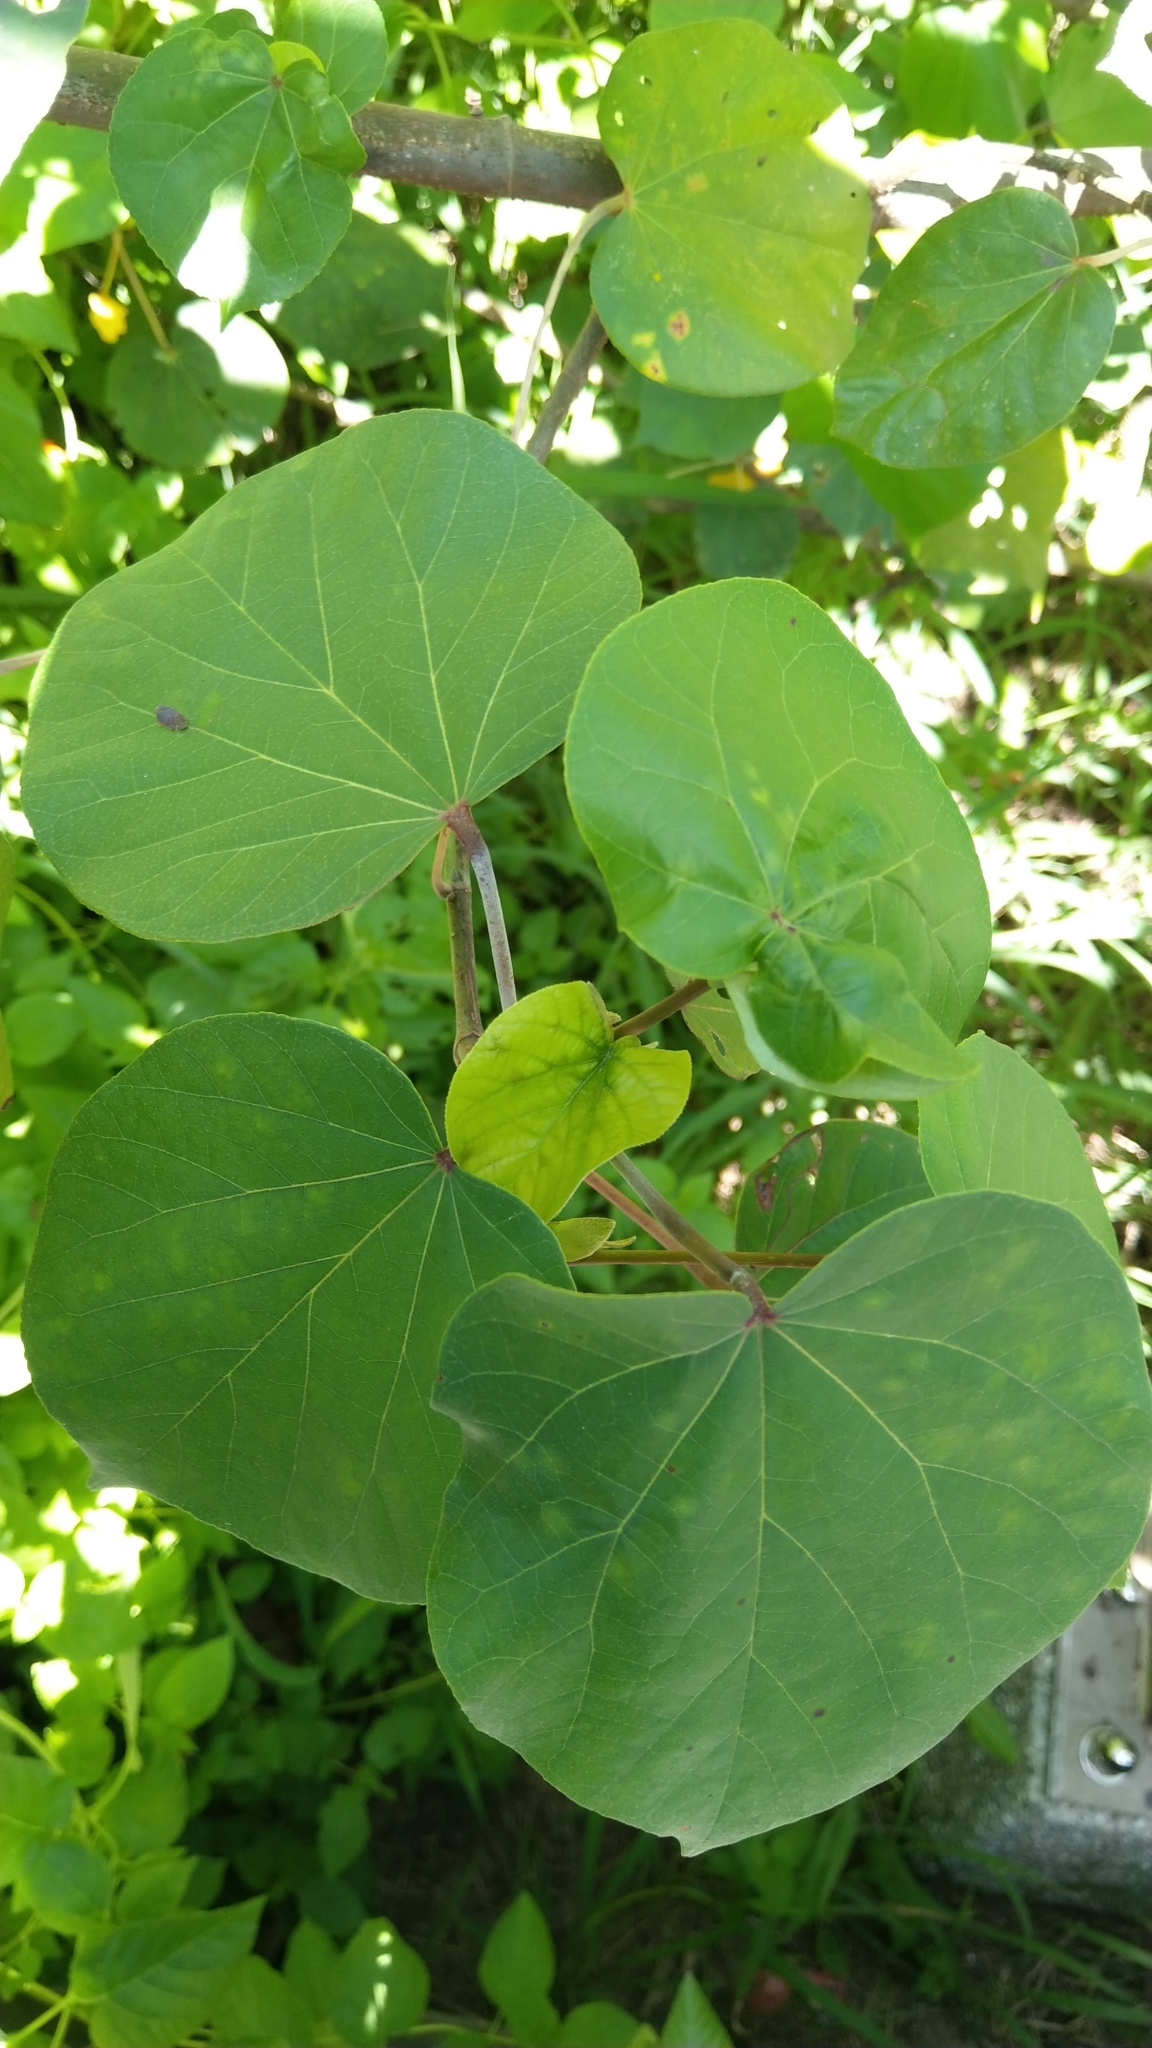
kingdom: Plantae
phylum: Tracheophyta
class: Magnoliopsida
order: Malvales
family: Malvaceae
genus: Talipariti
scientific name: Talipariti tiliaceum
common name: Sea hibiscus
